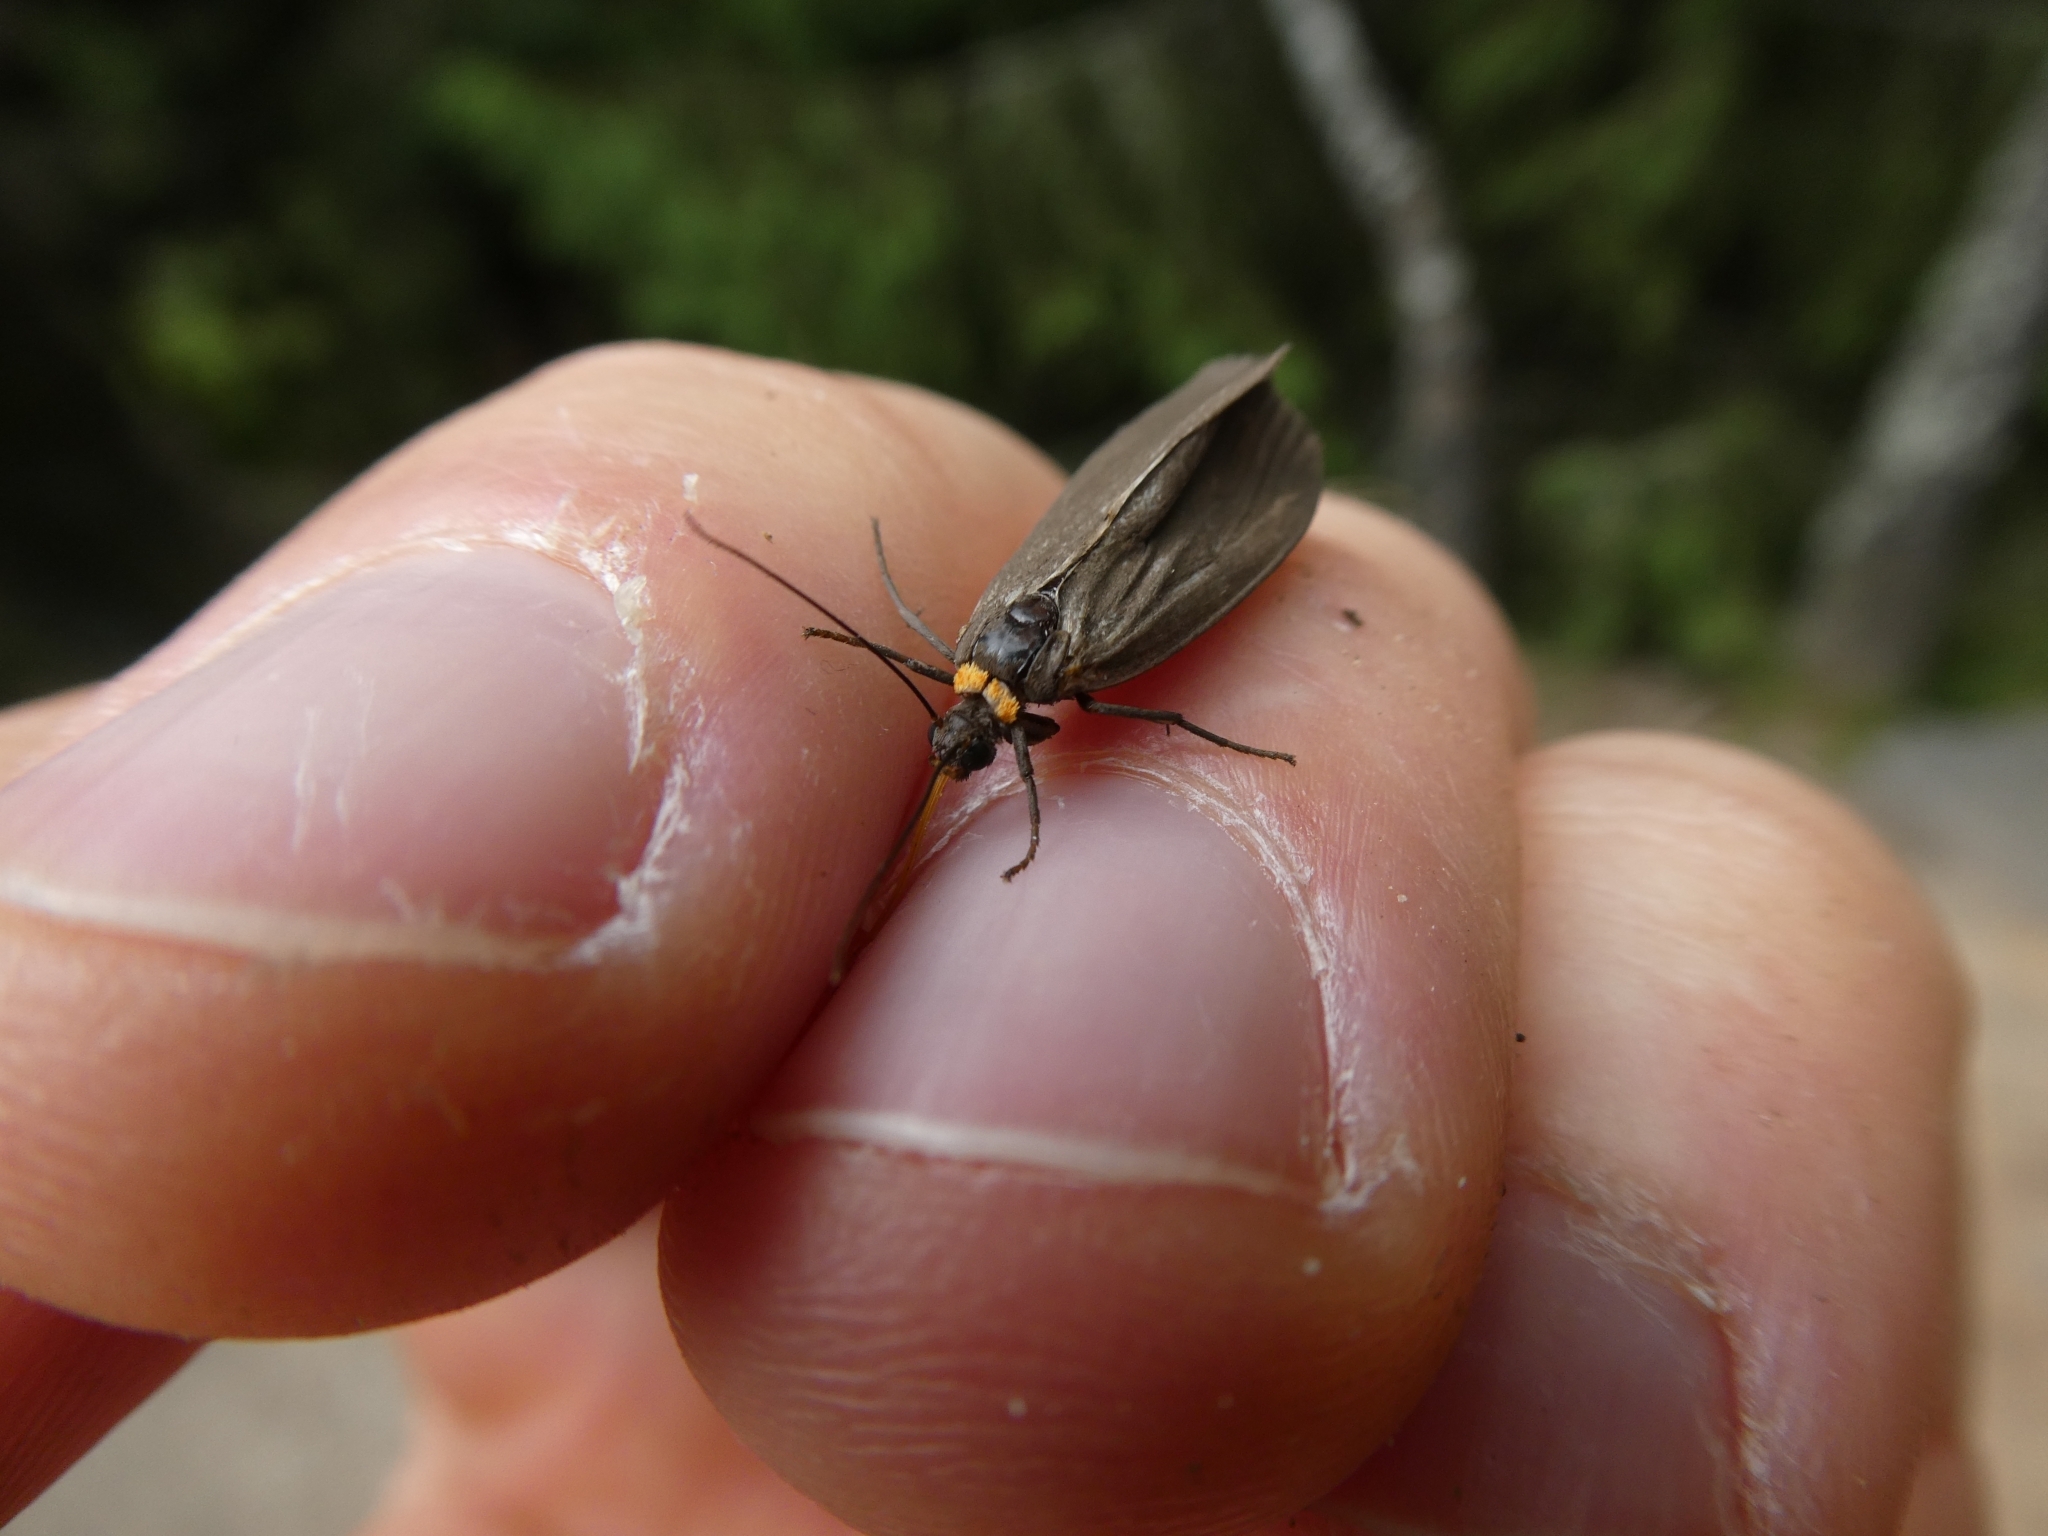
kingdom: Animalia
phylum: Arthropoda
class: Insecta
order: Lepidoptera
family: Erebidae
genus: Atolmis
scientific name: Atolmis rubricollis
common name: Red-necked footman
